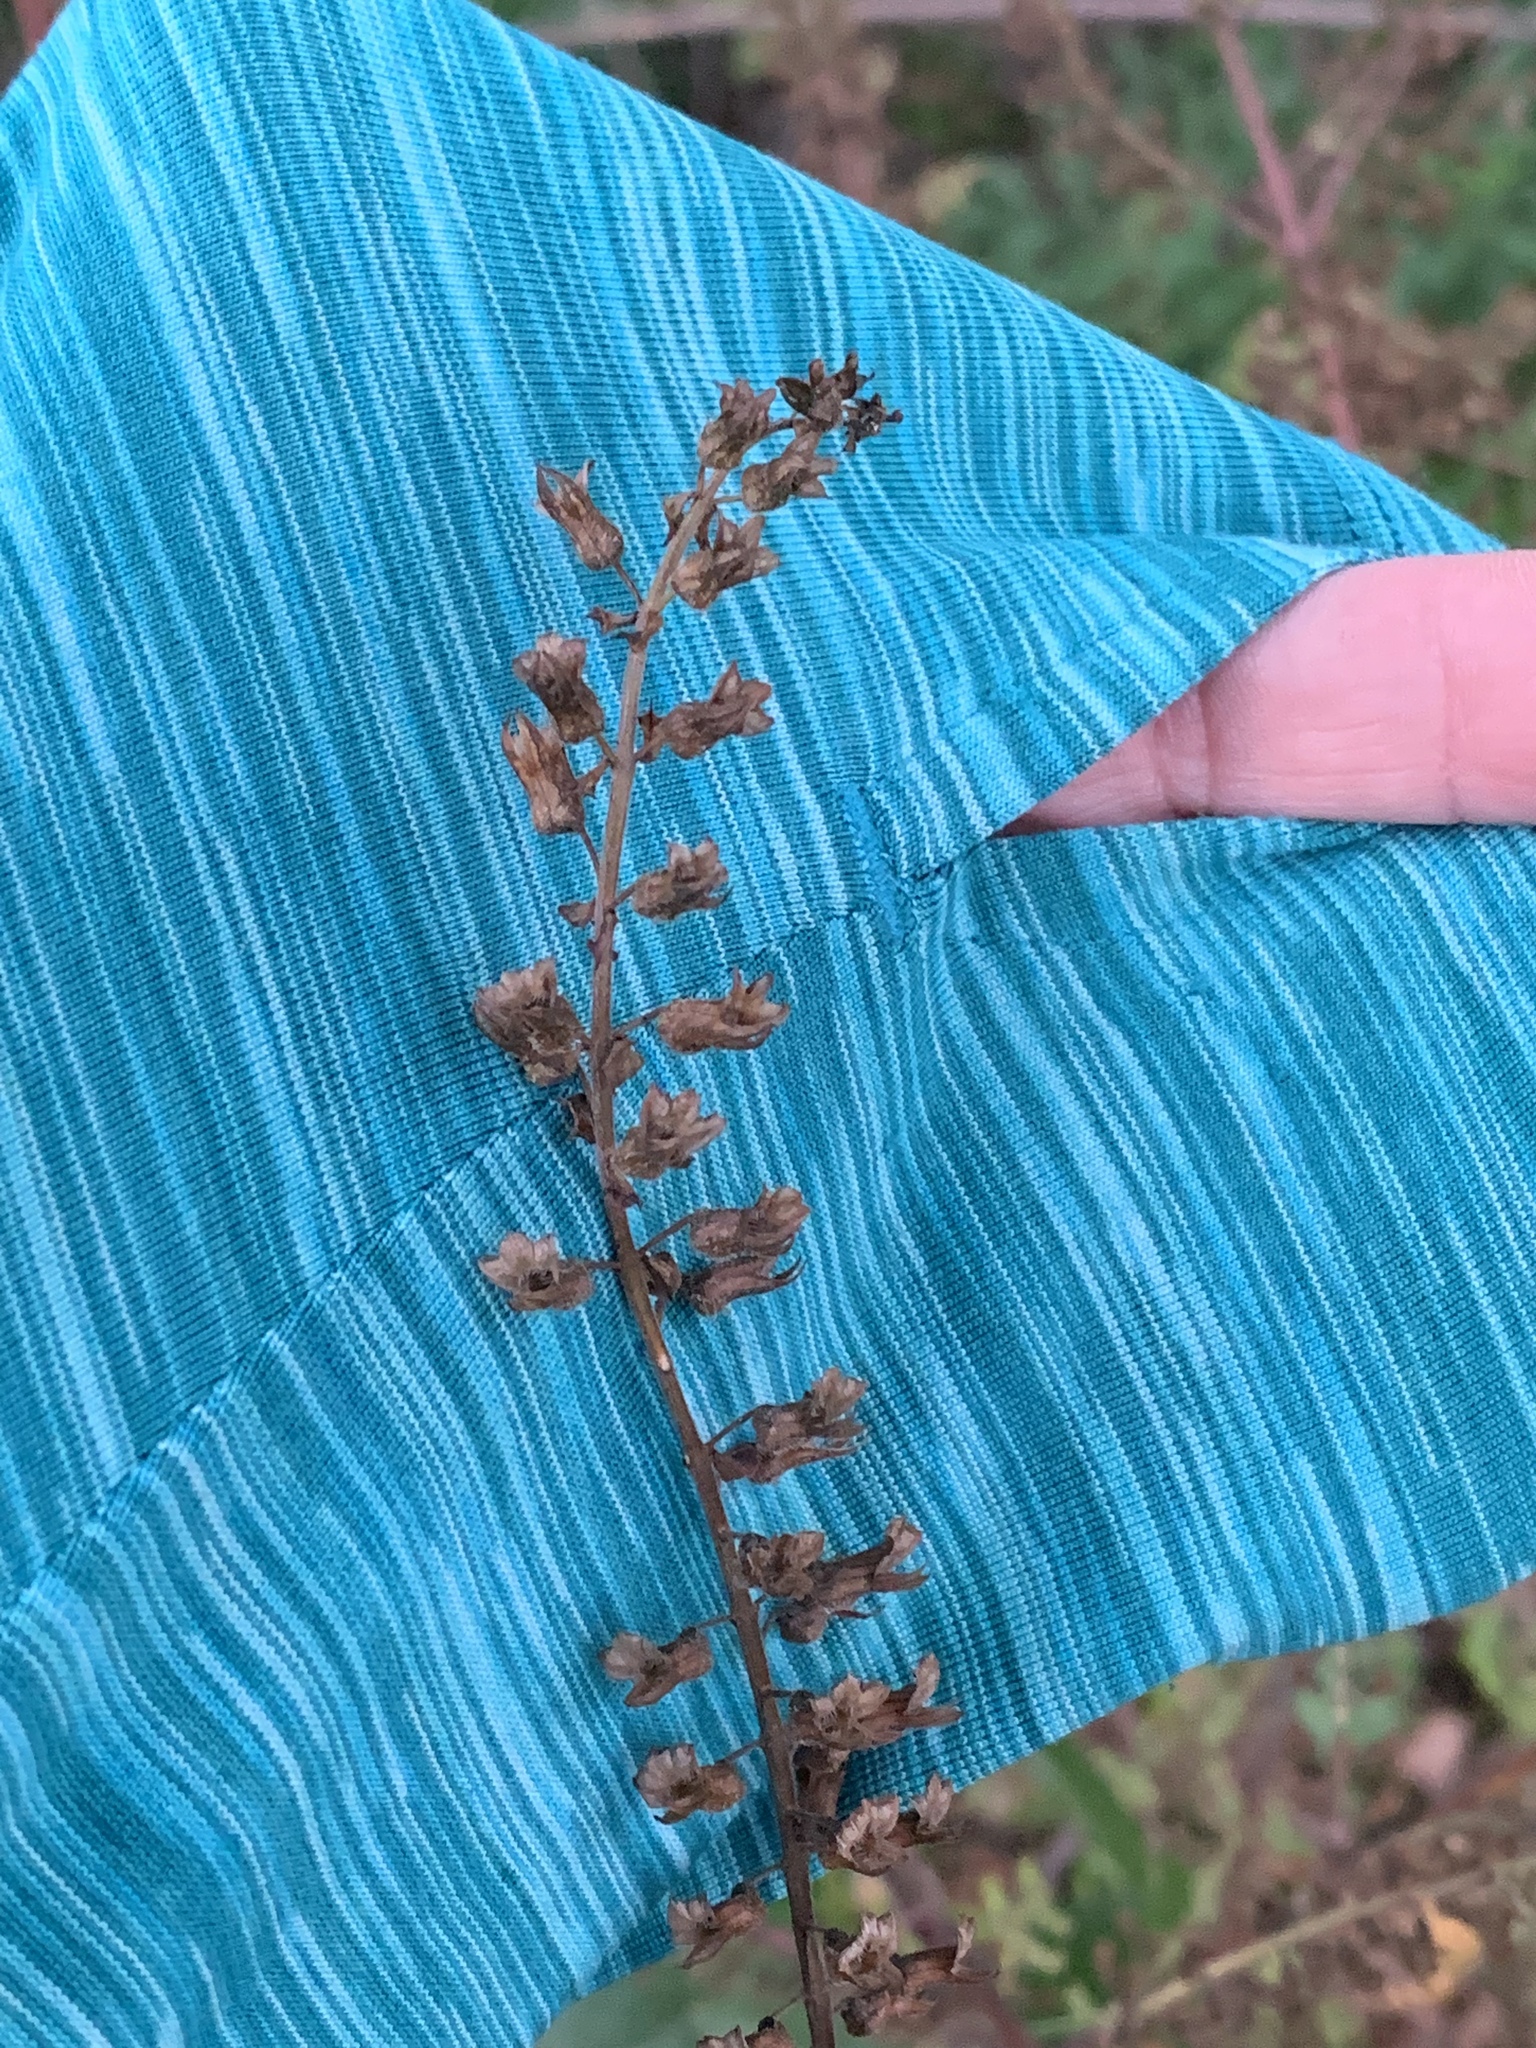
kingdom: Plantae
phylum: Tracheophyta
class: Magnoliopsida
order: Lamiales
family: Lamiaceae
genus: Perilla
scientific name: Perilla frutescens
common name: Perilla
